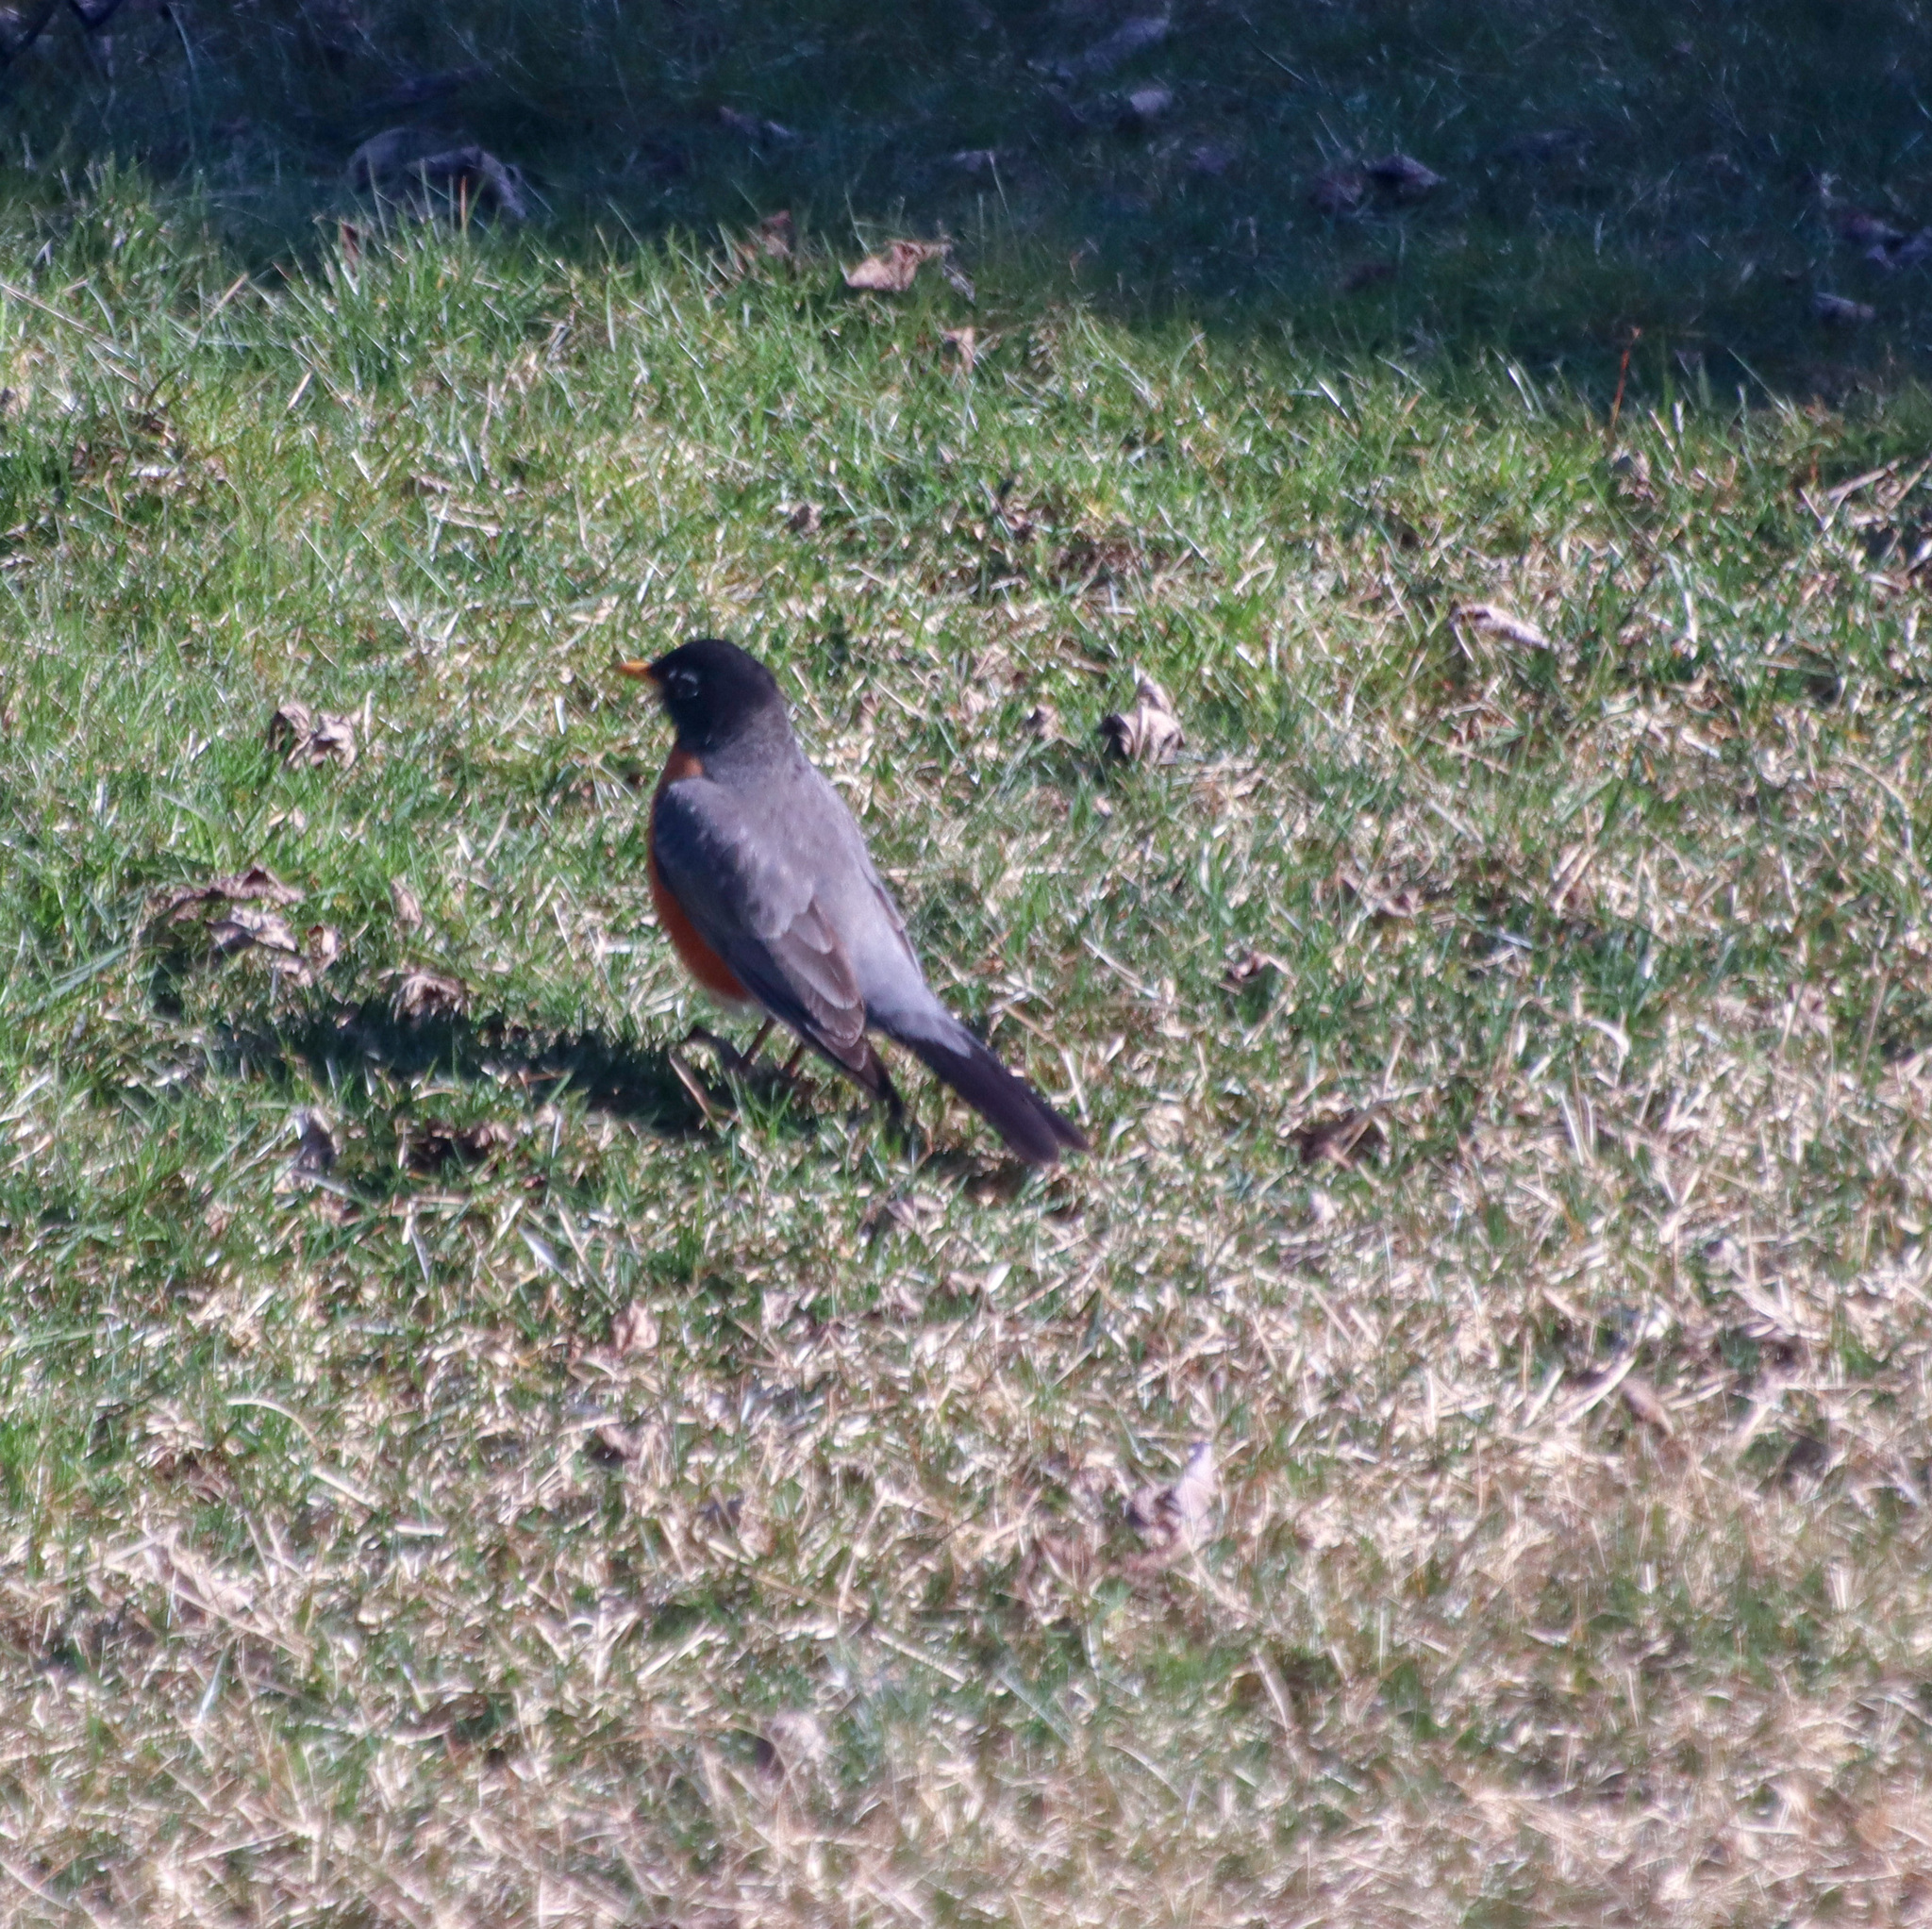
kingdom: Animalia
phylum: Chordata
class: Aves
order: Passeriformes
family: Turdidae
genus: Turdus
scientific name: Turdus migratorius
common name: American robin
